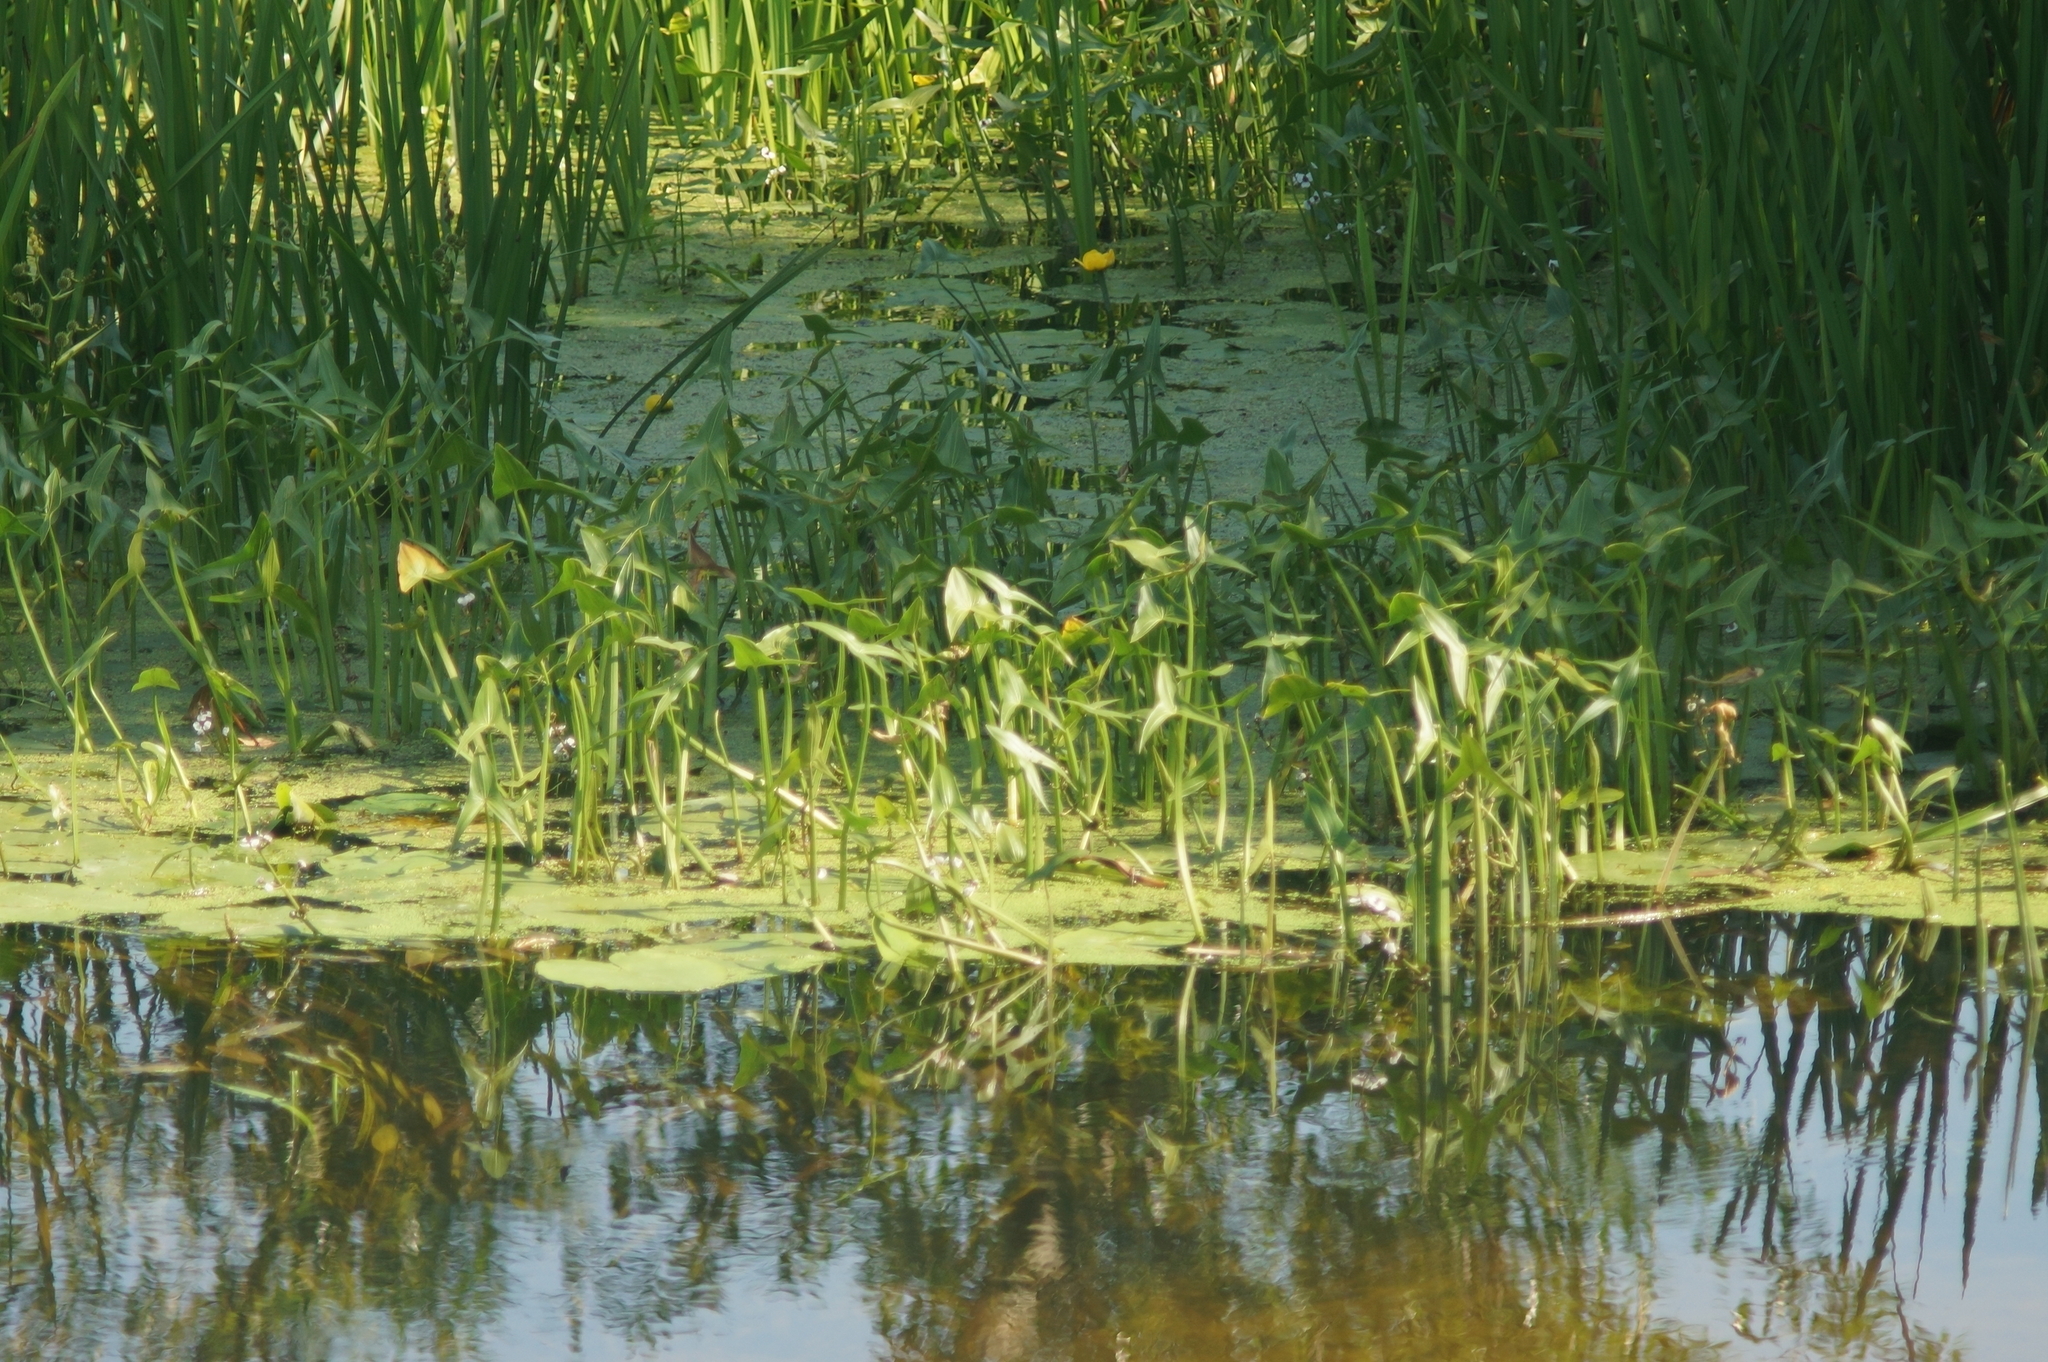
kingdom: Plantae
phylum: Tracheophyta
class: Liliopsida
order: Alismatales
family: Alismataceae
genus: Sagittaria
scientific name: Sagittaria sagittifolia
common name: Arrowhead
